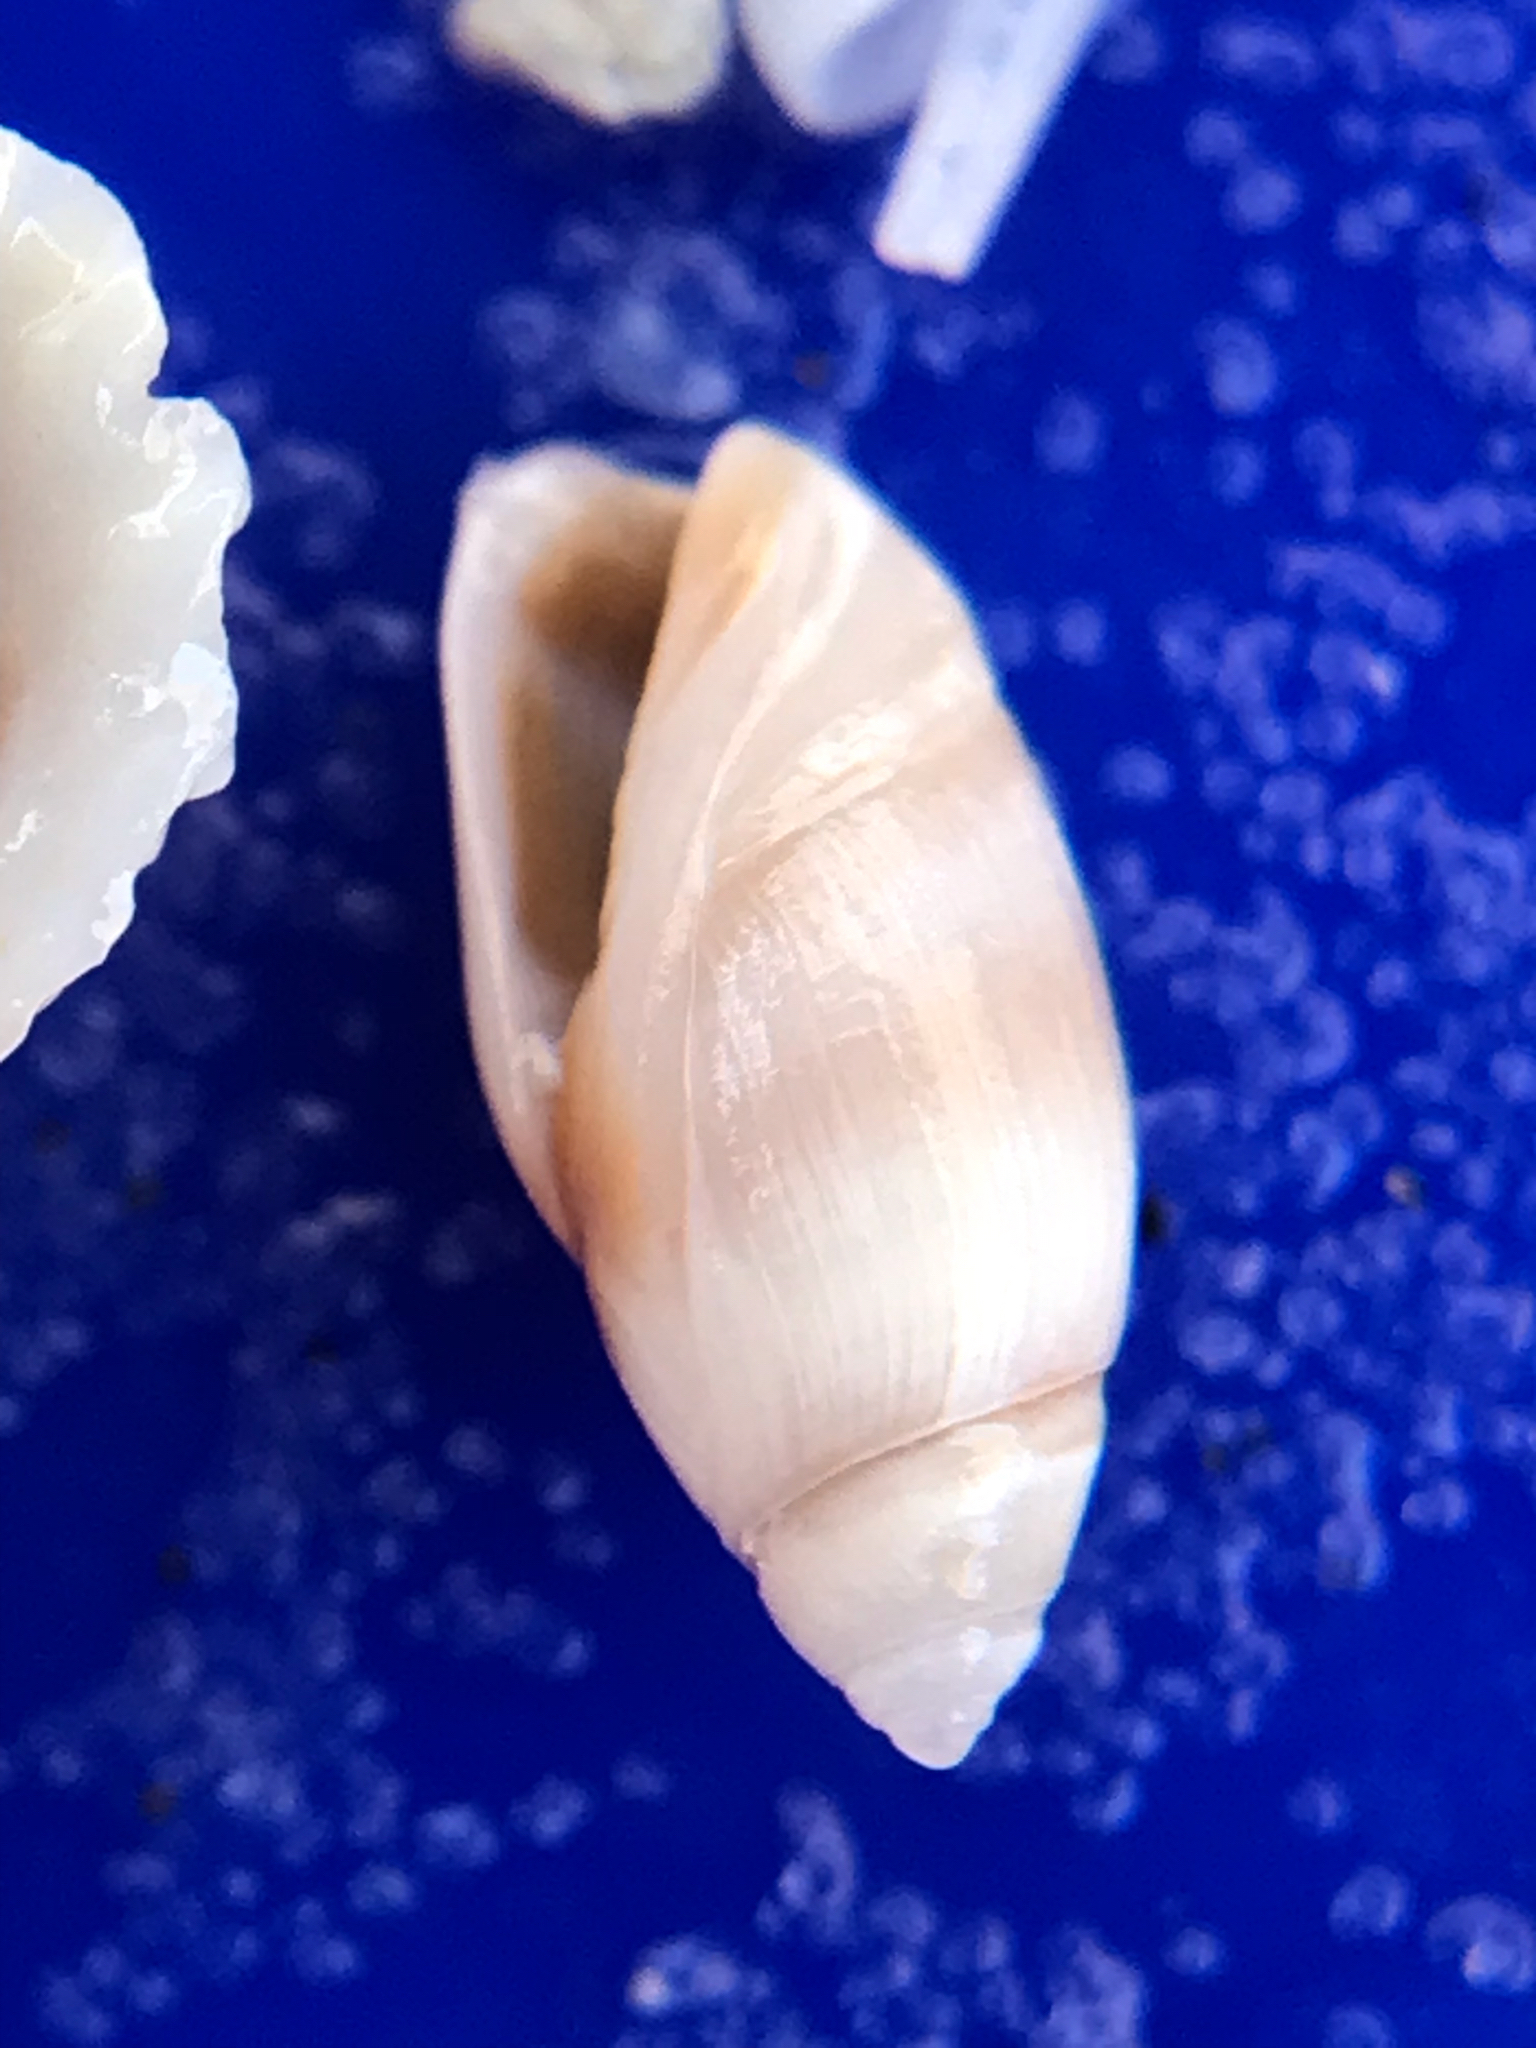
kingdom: Animalia
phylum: Mollusca
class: Gastropoda
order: Neogastropoda
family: Olividae
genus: Olivella
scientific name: Olivella pusilla
